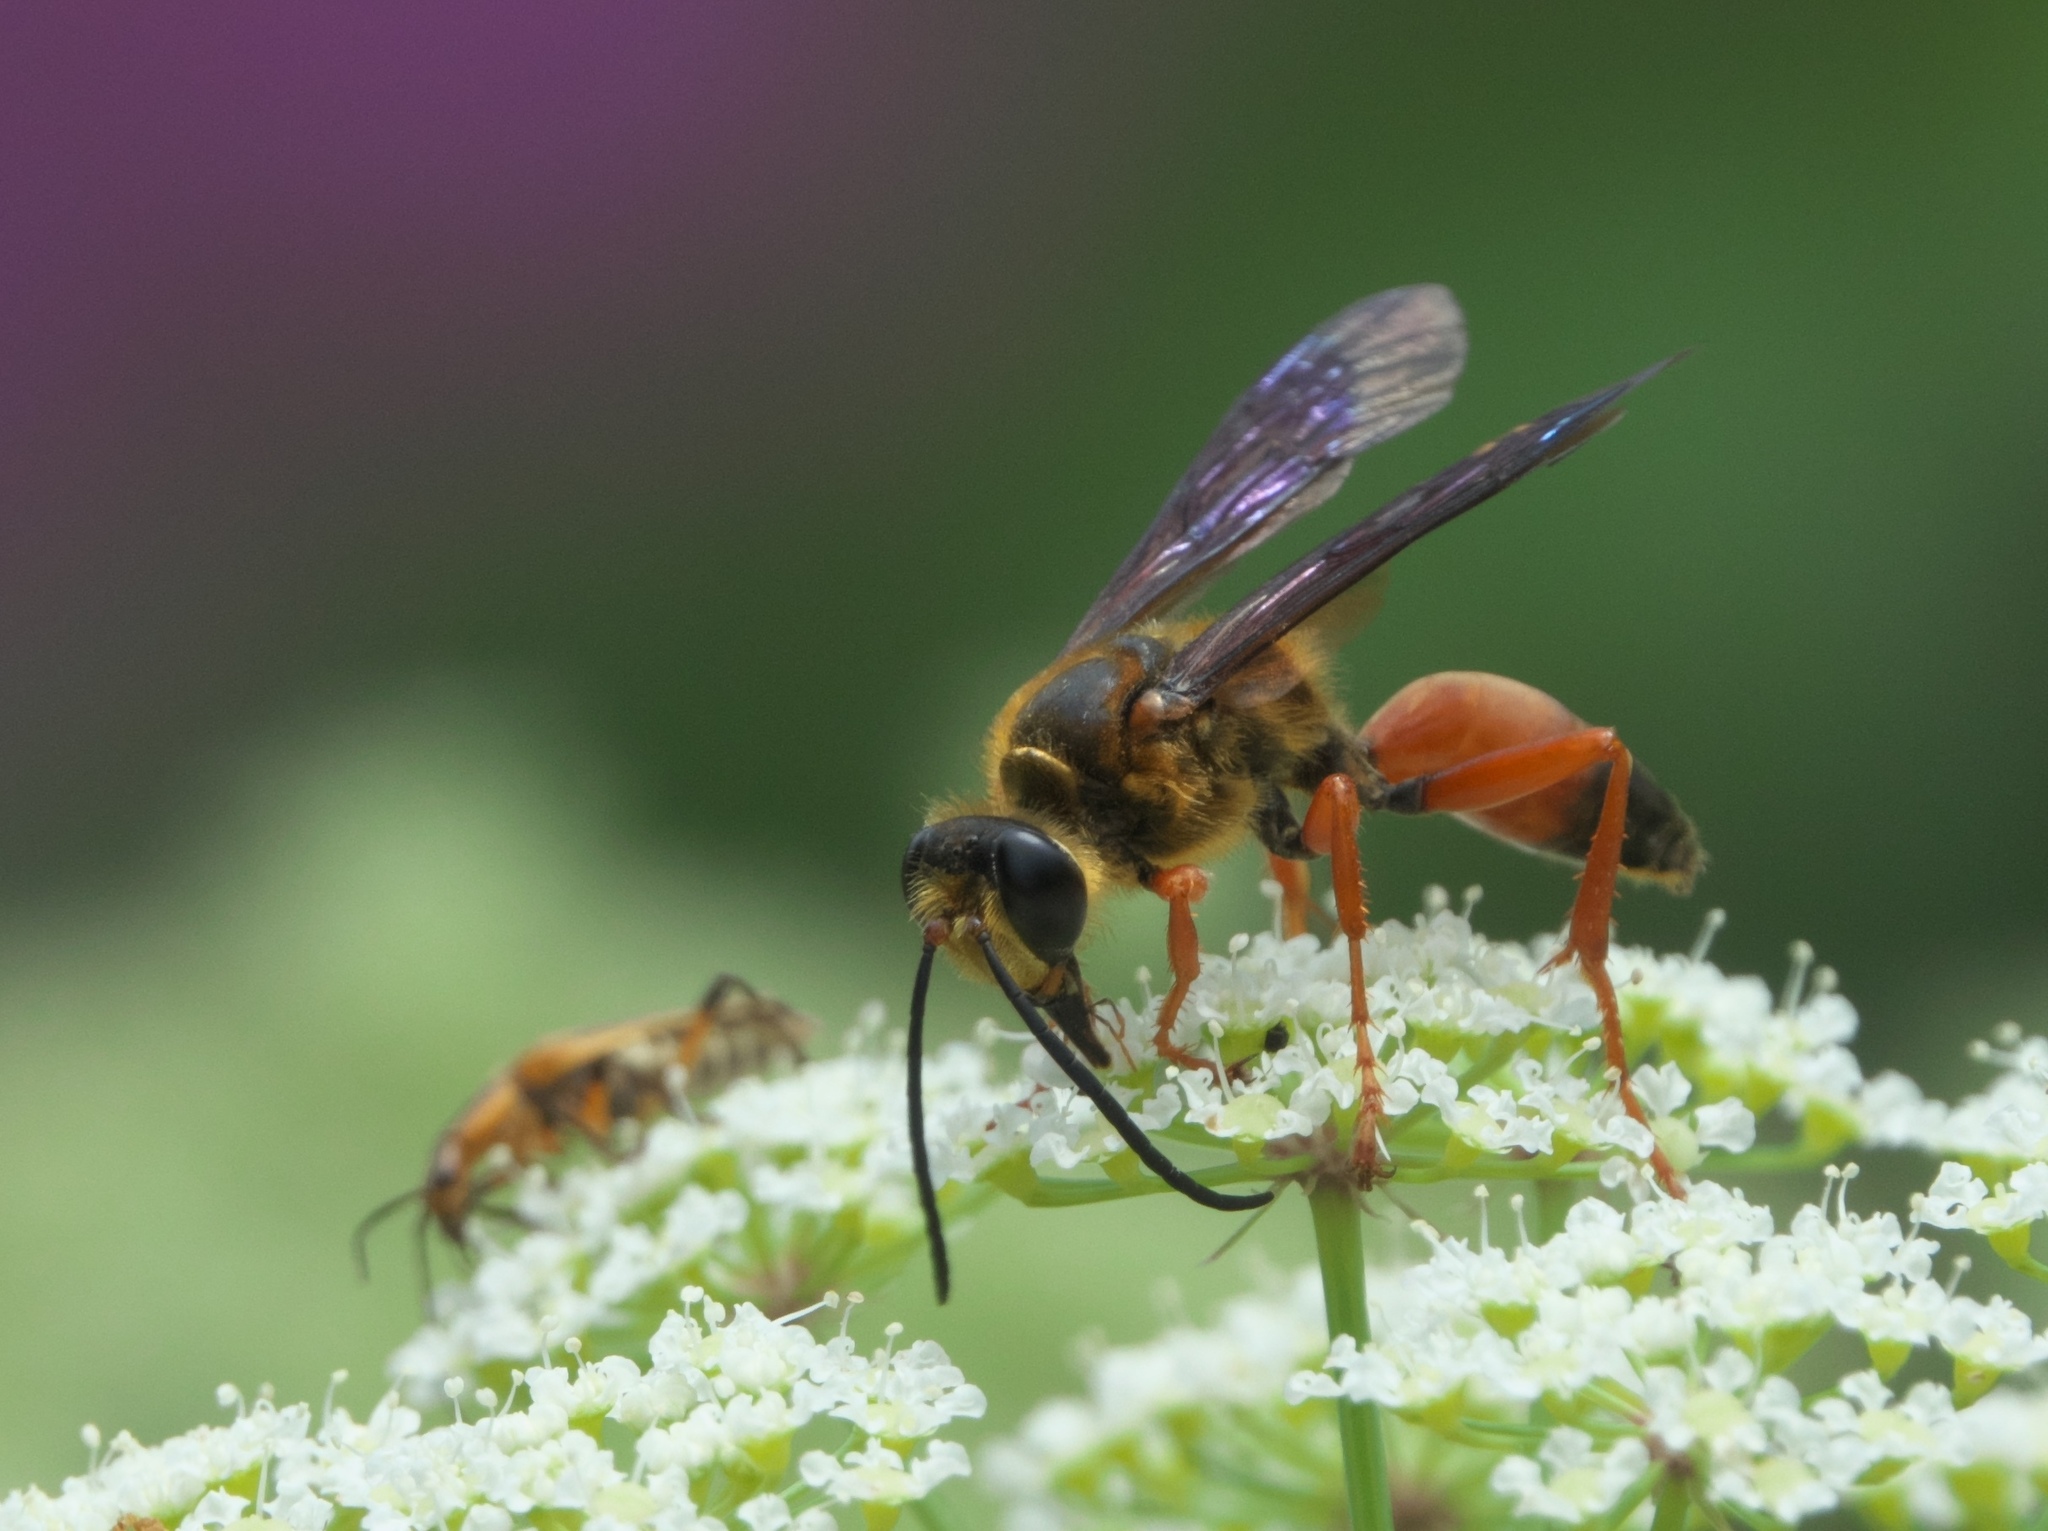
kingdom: Animalia
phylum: Arthropoda
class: Insecta
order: Hymenoptera
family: Sphecidae
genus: Sphex
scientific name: Sphex ichneumoneus
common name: Great golden digger wasp
